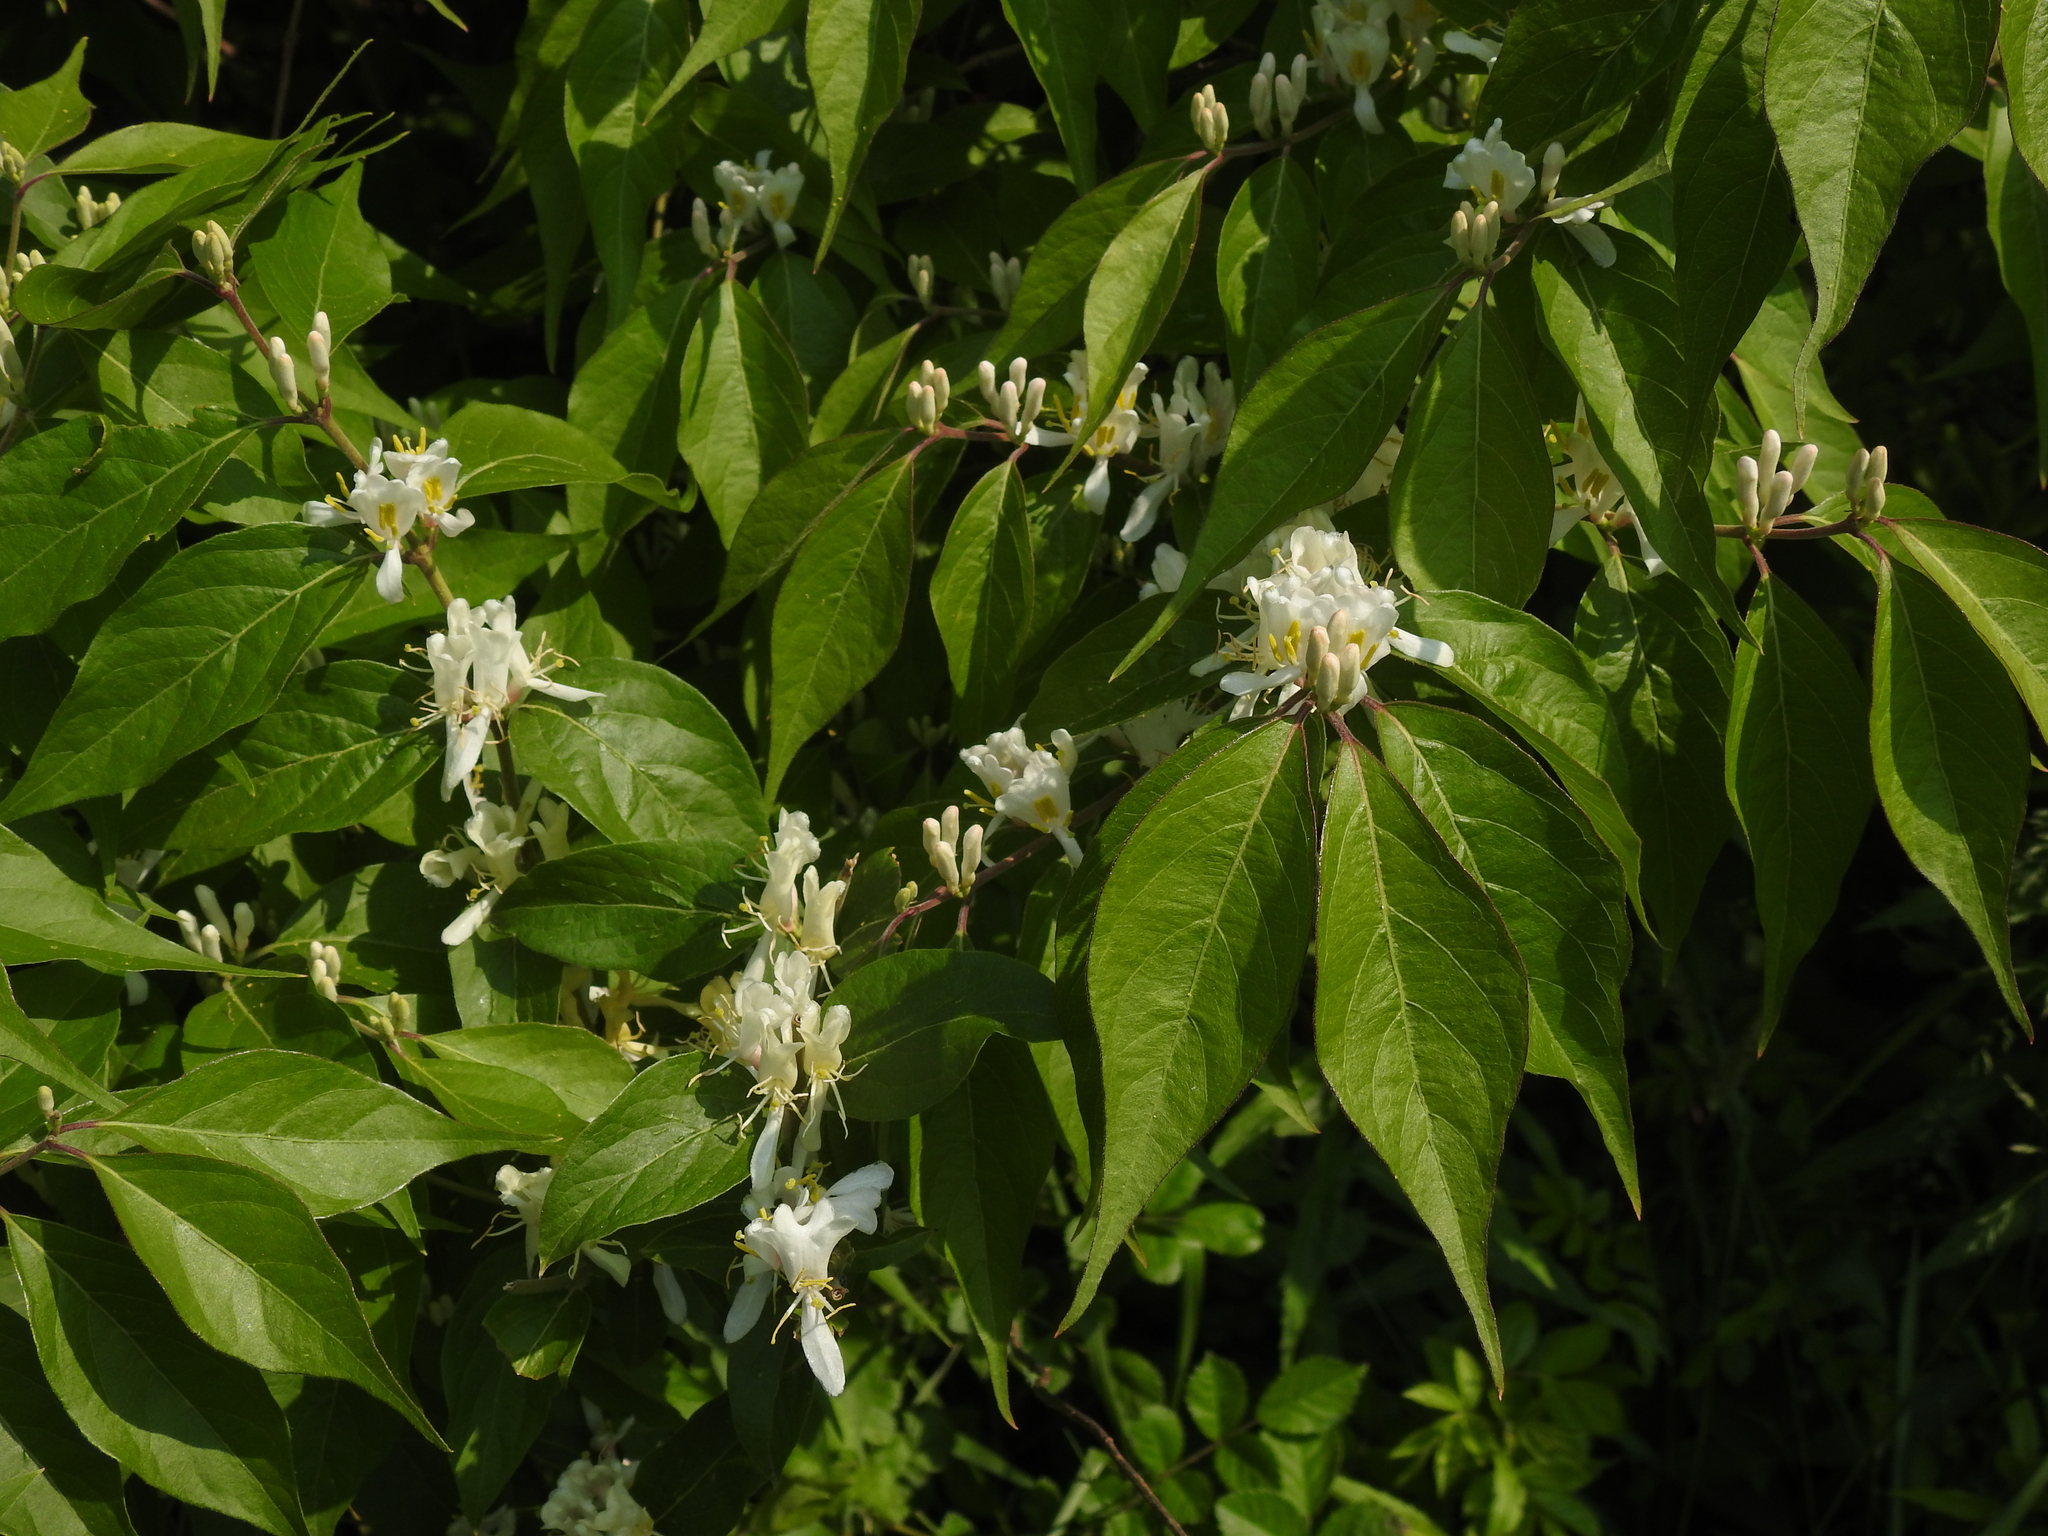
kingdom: Plantae
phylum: Tracheophyta
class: Magnoliopsida
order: Dipsacales
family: Caprifoliaceae
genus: Lonicera
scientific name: Lonicera maackii
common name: Amur honeysuckle
